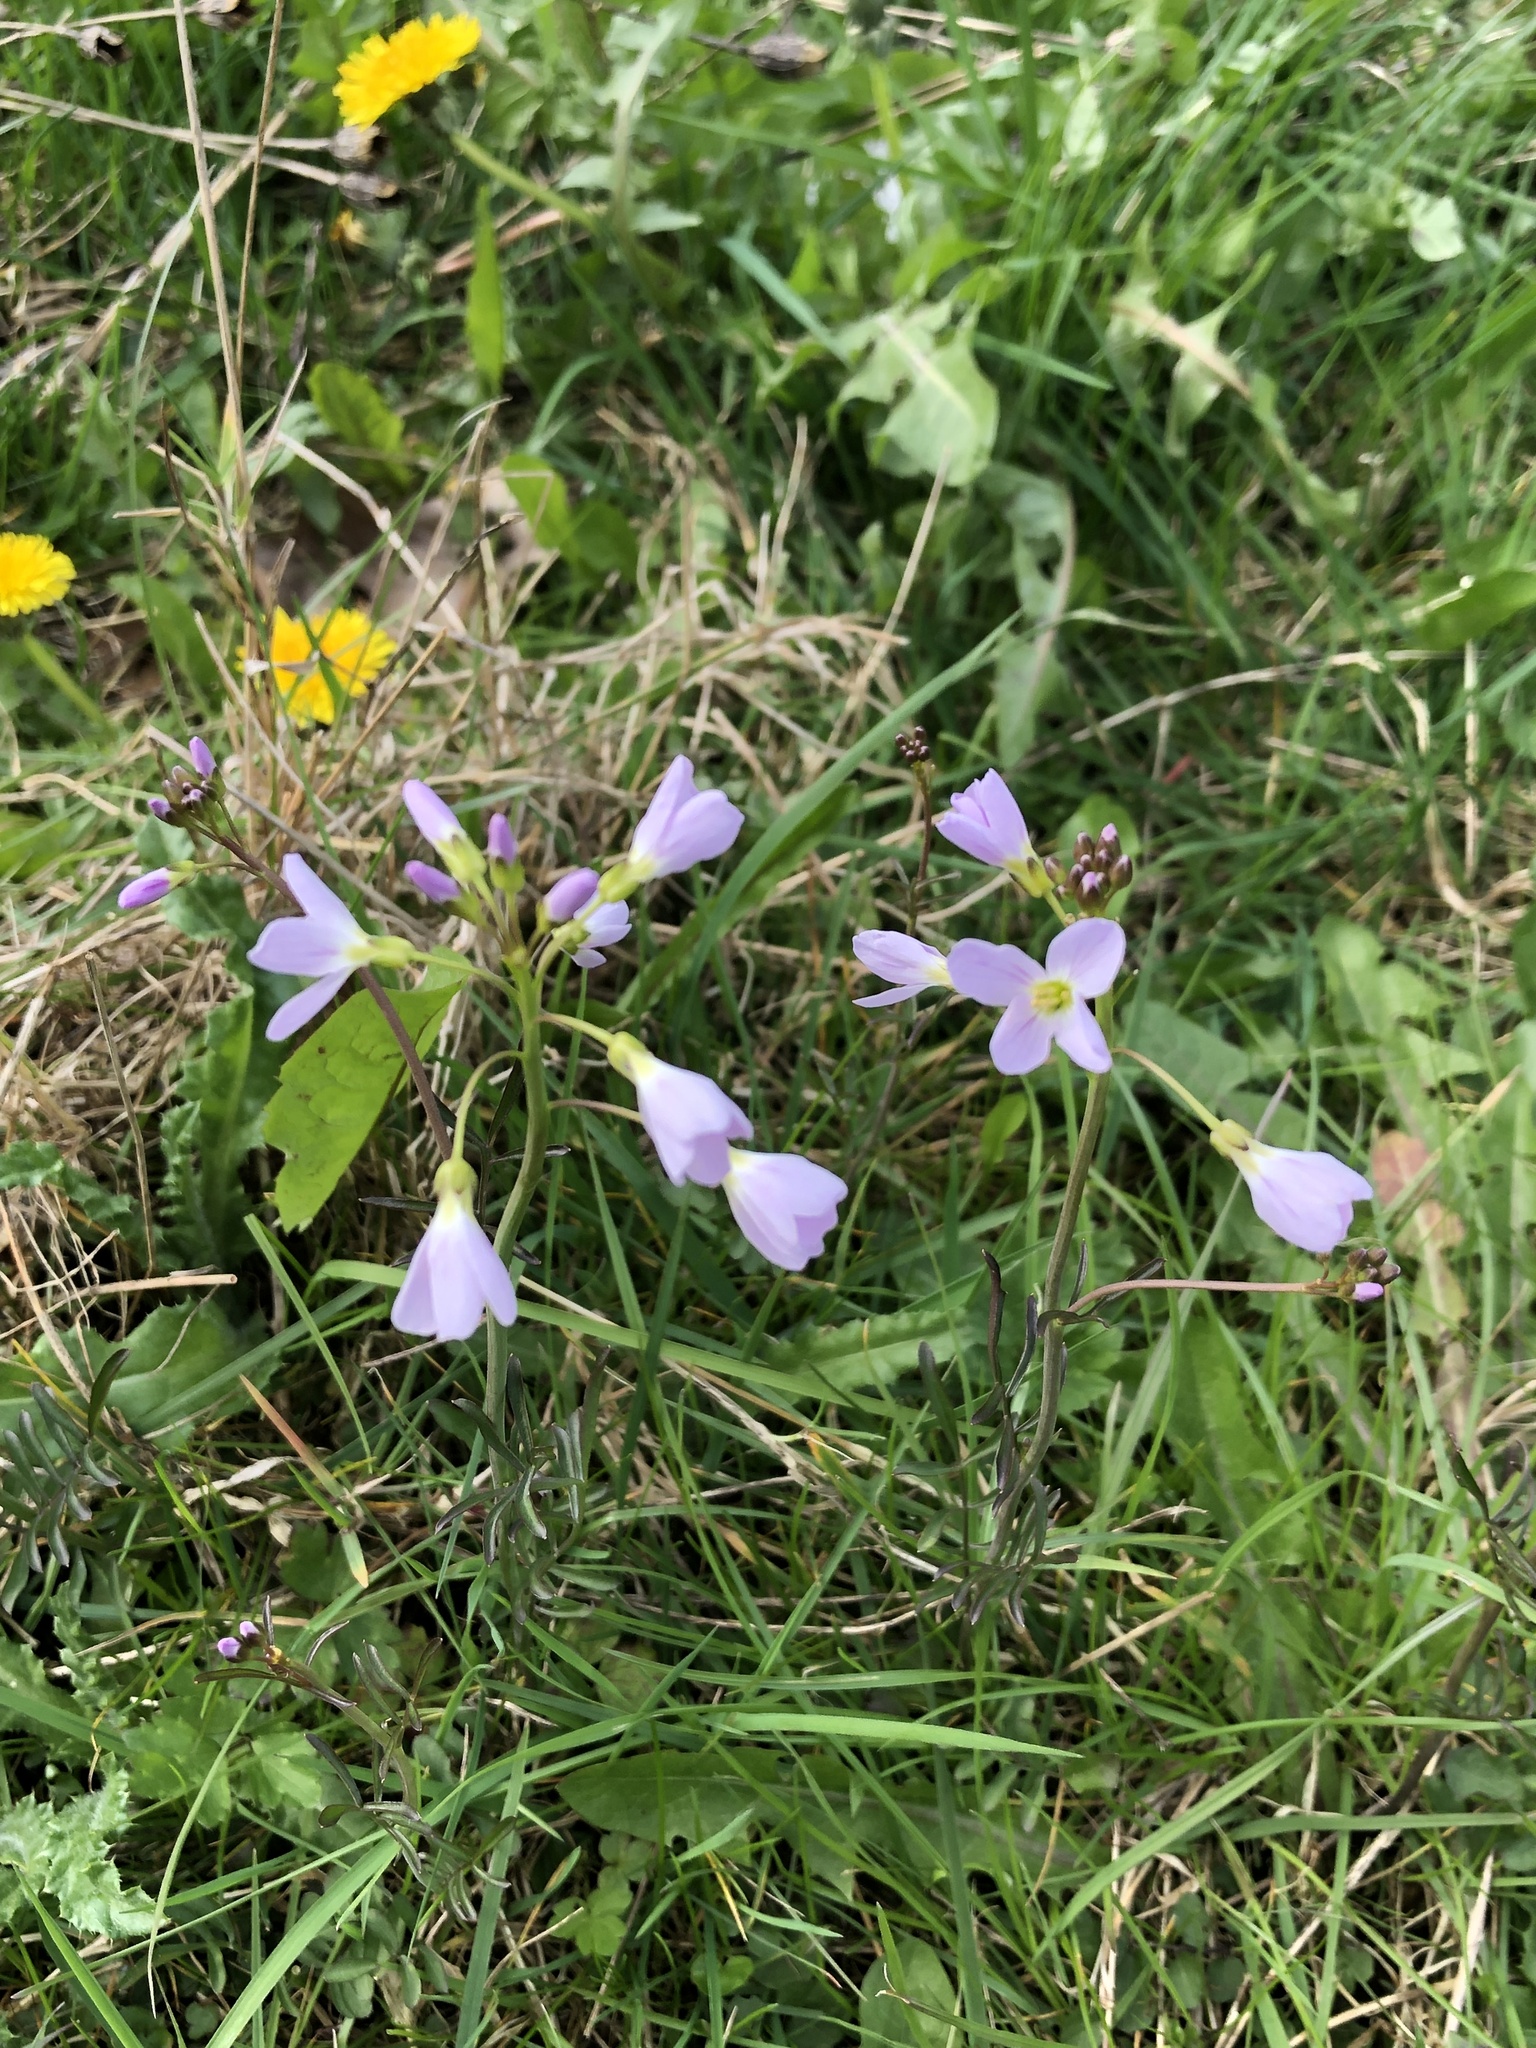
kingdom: Plantae
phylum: Tracheophyta
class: Magnoliopsida
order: Brassicales
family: Brassicaceae
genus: Cardamine
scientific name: Cardamine pratensis
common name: Cuckoo flower
